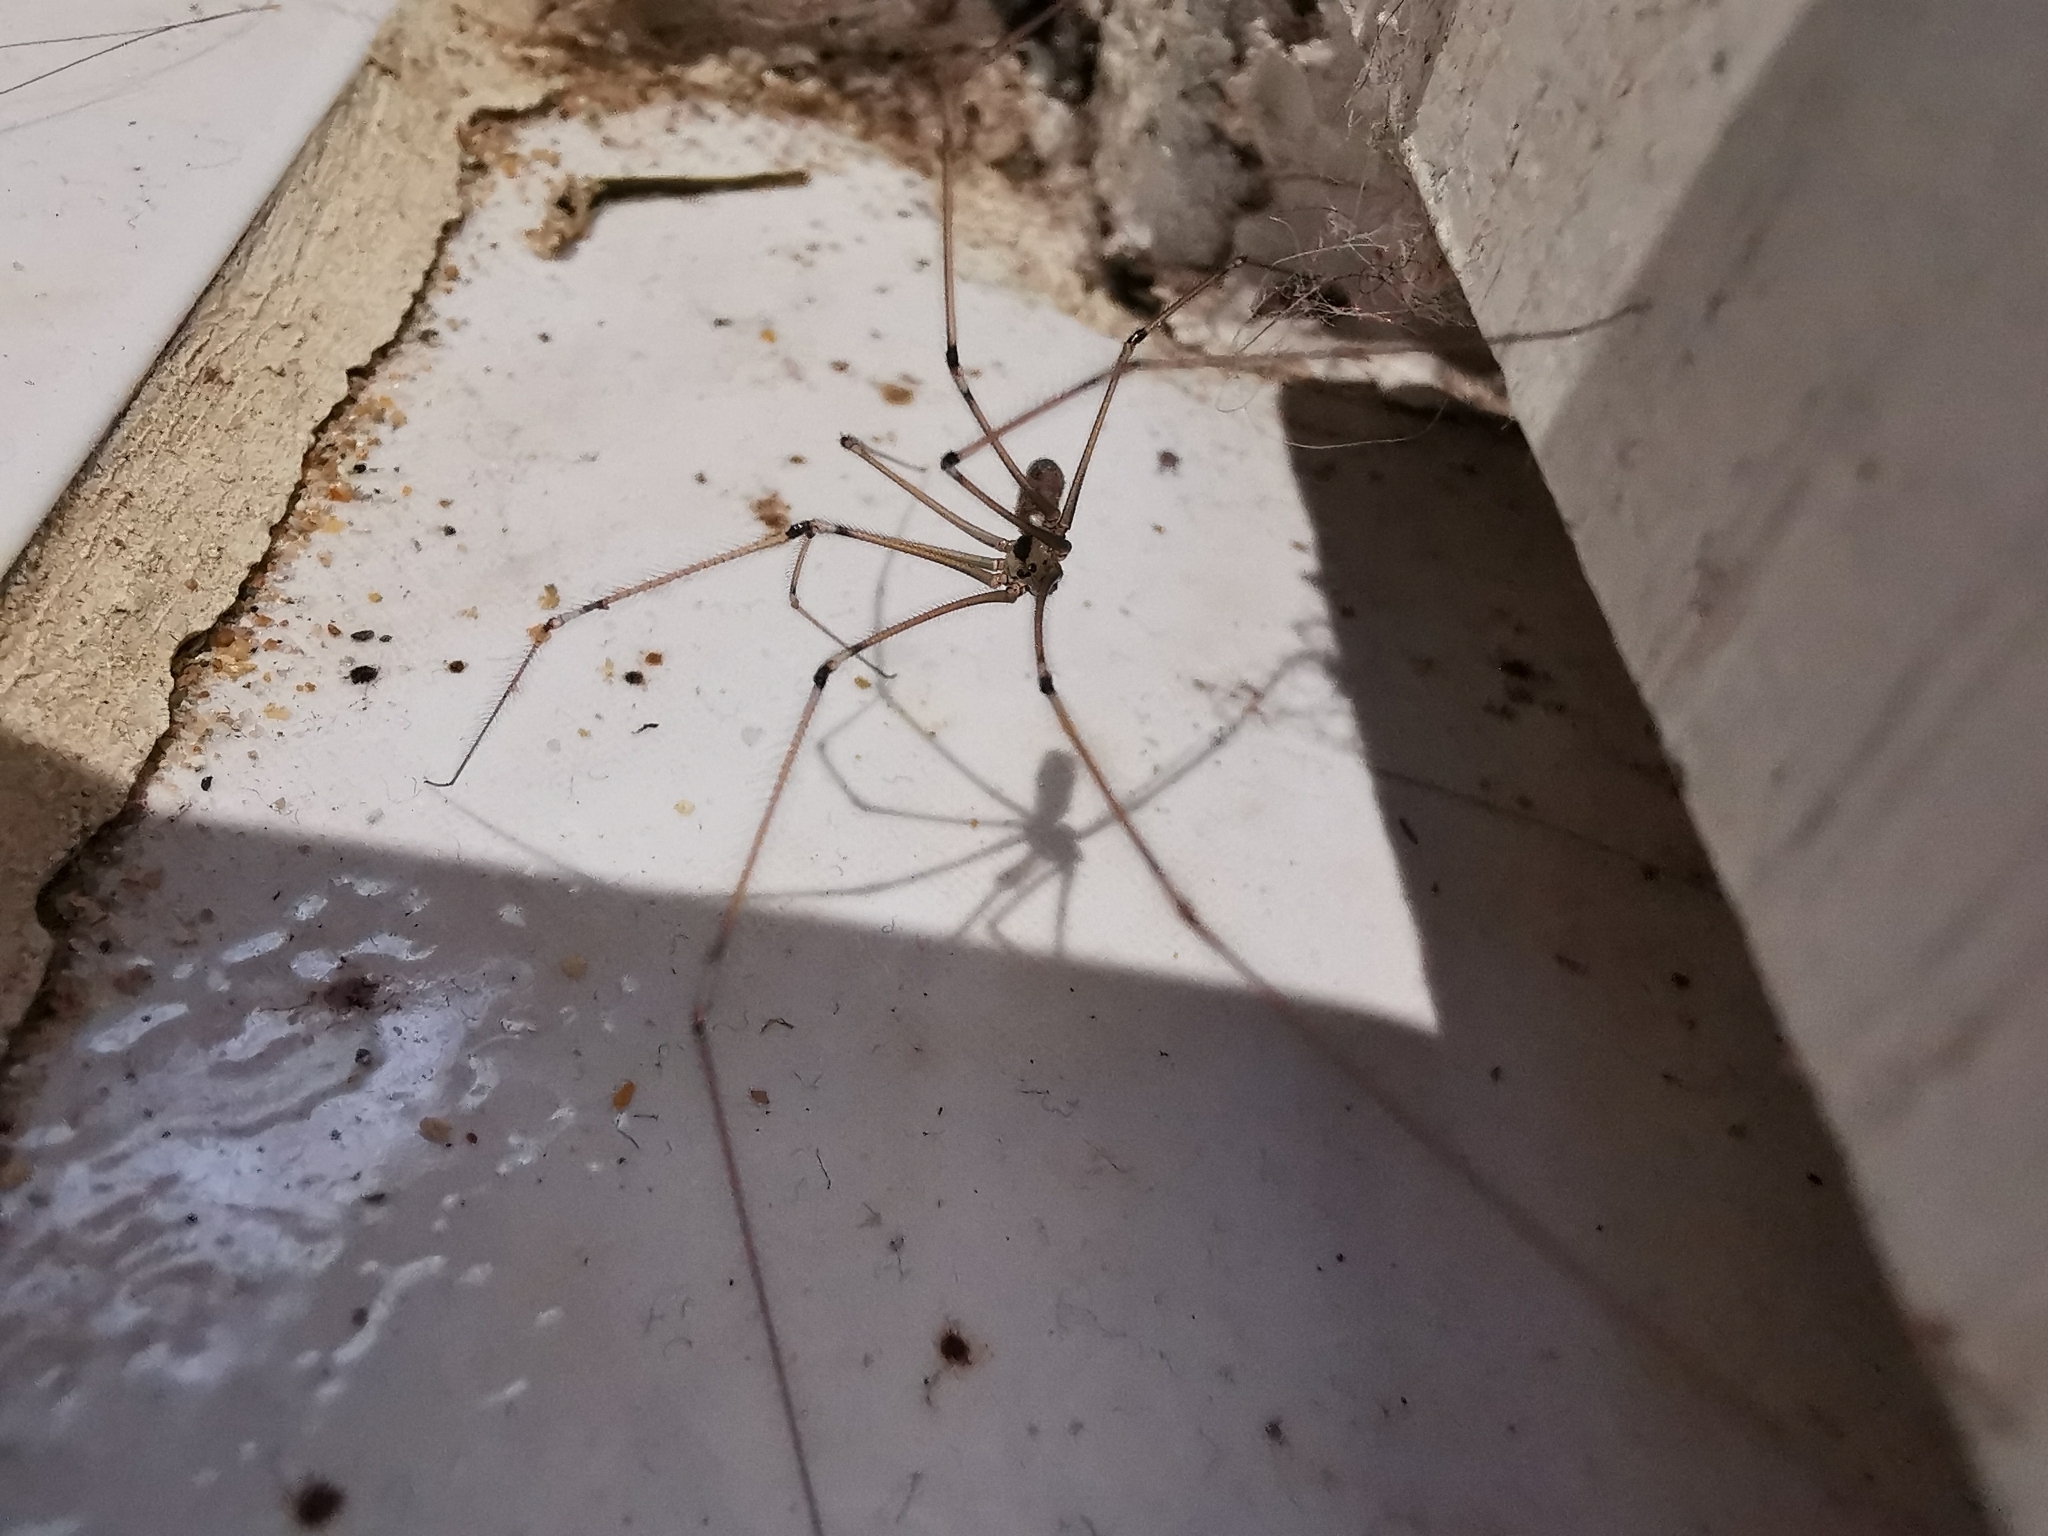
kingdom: Animalia
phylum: Arthropoda
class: Arachnida
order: Araneae
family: Pholcidae
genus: Pholcus
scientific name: Pholcus phalangioides
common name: Longbodied cellar spider
